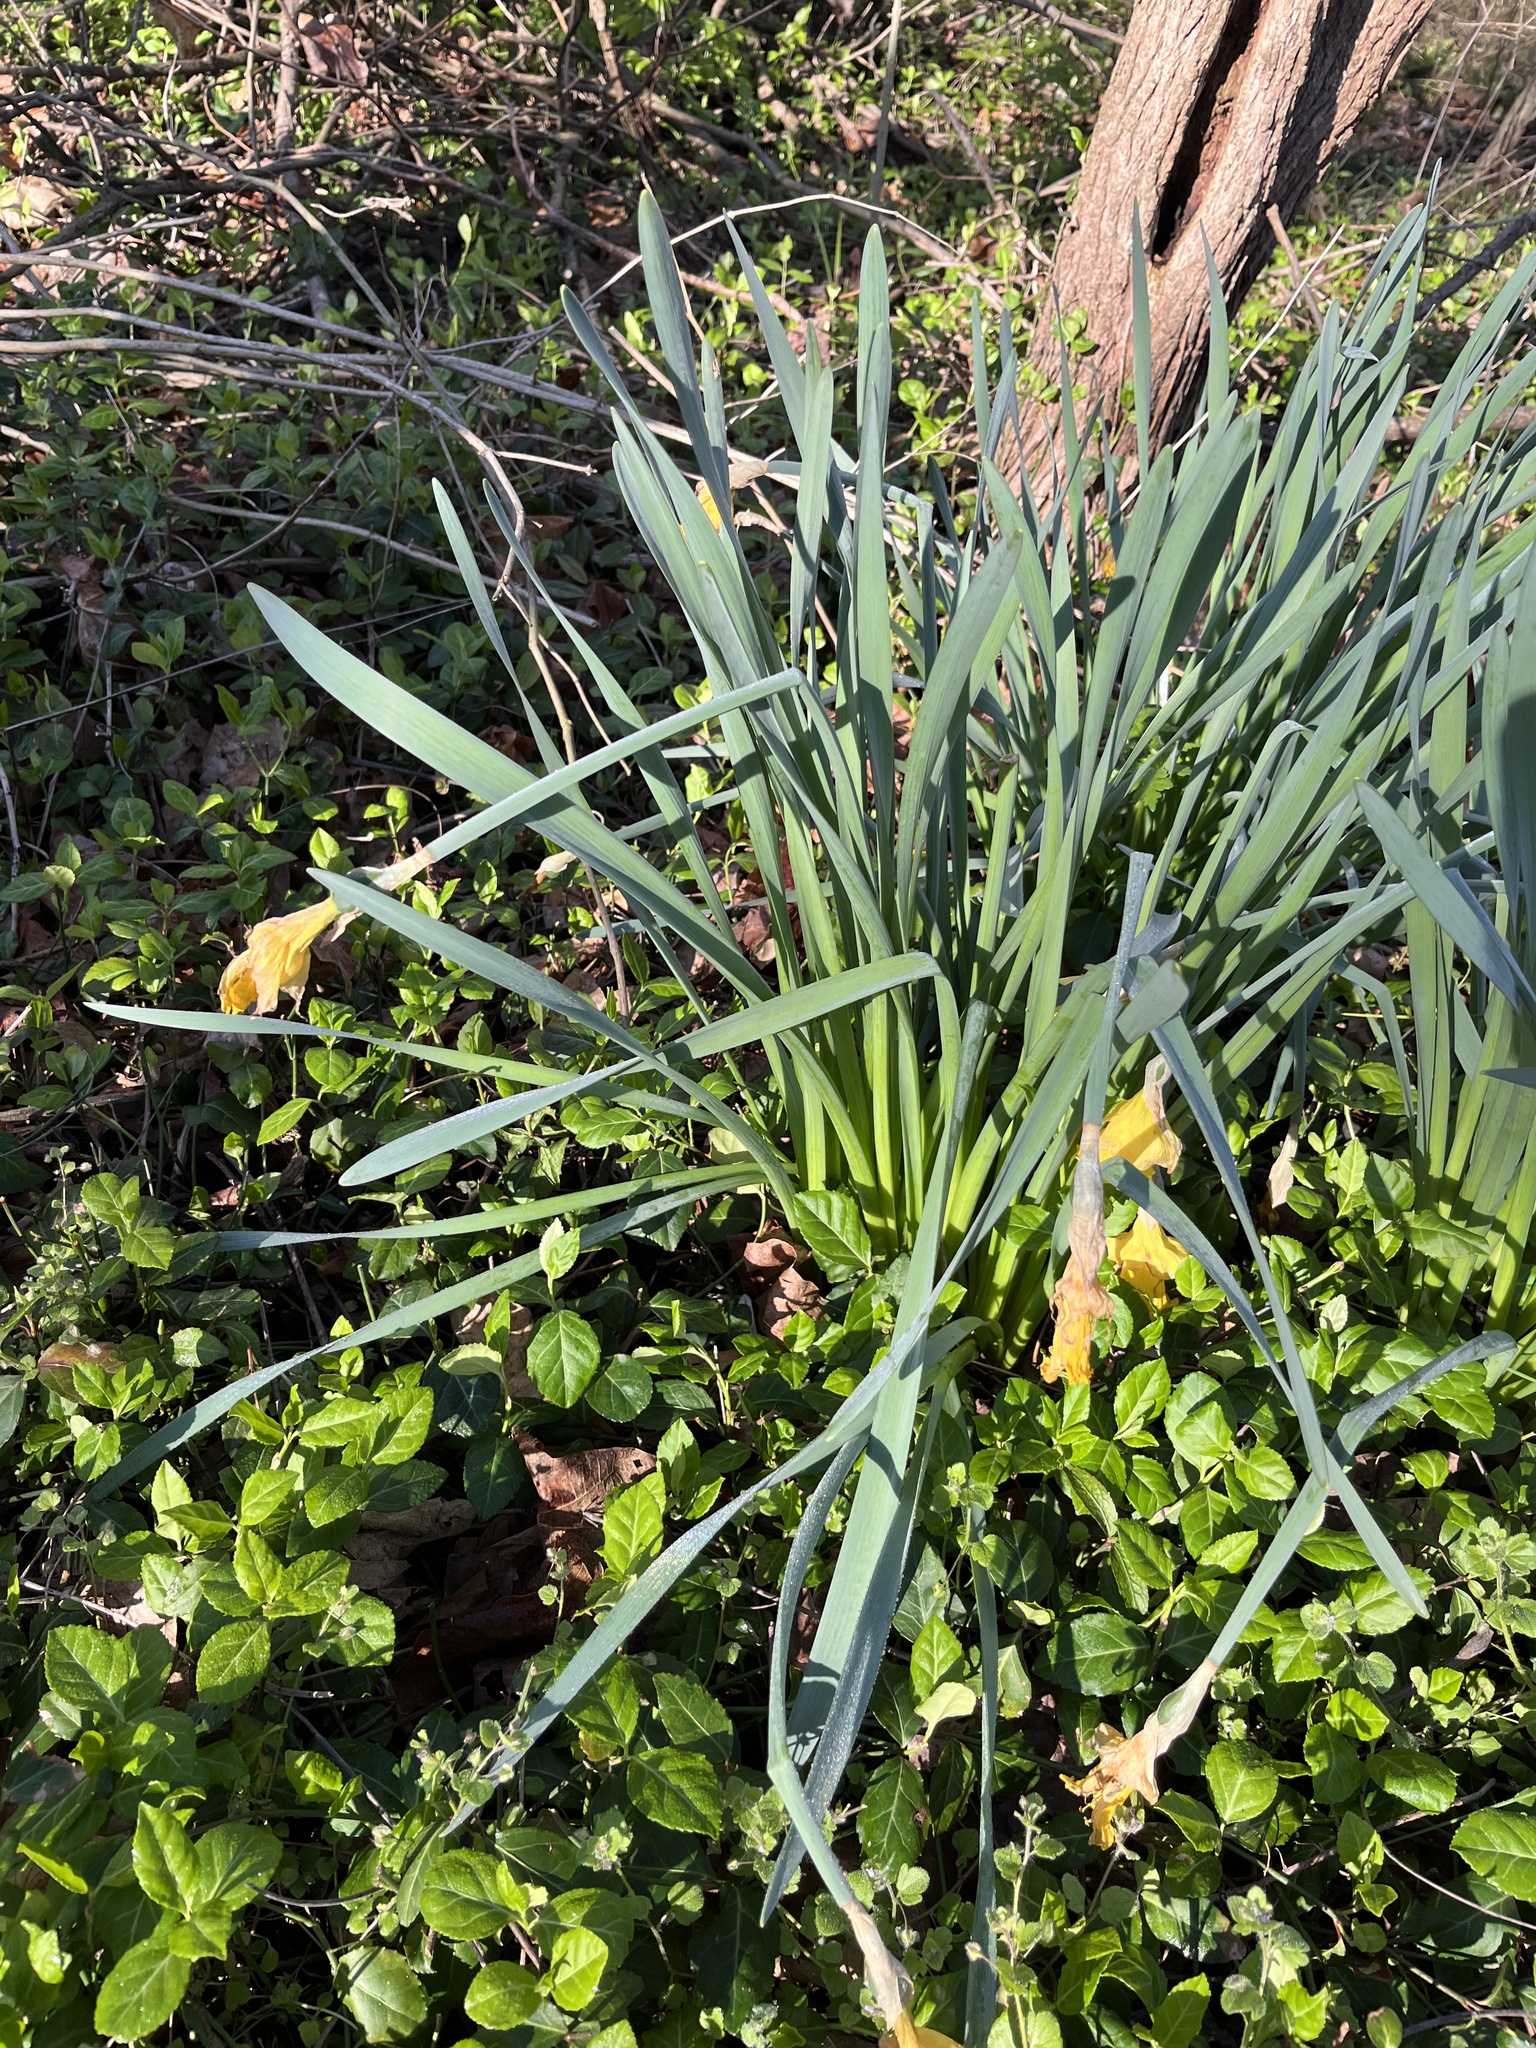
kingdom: Plantae
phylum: Tracheophyta
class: Liliopsida
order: Asparagales
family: Amaryllidaceae
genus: Narcissus
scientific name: Narcissus pseudonarcissus
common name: Daffodil
